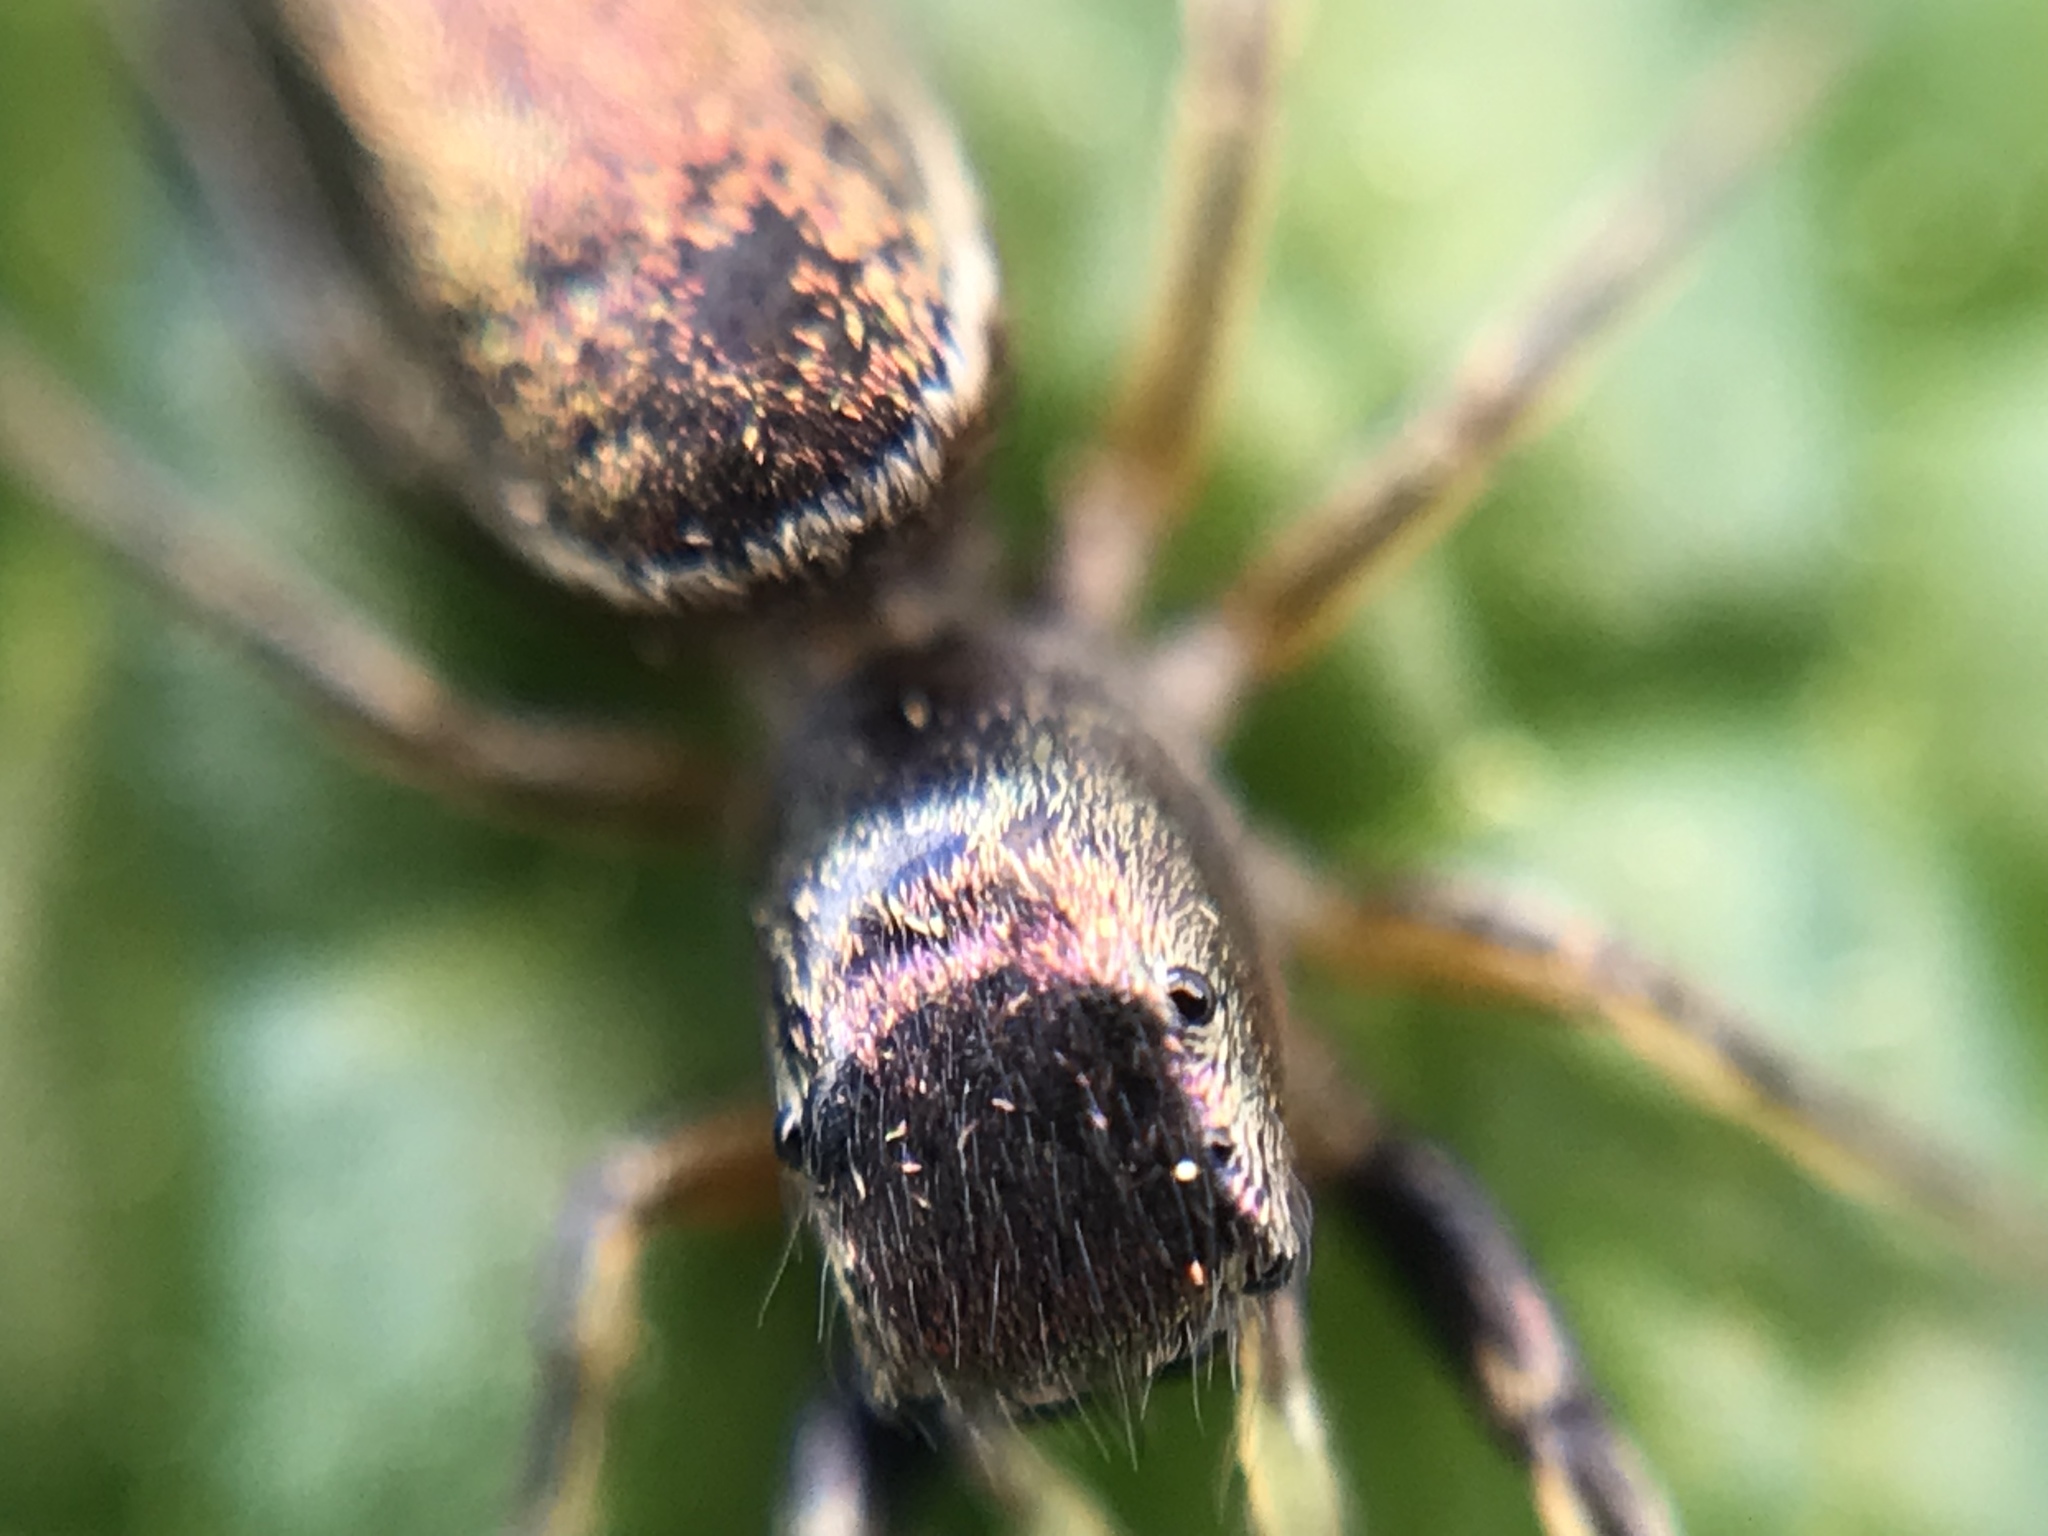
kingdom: Animalia
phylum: Arthropoda
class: Arachnida
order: Araneae
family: Salticidae
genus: Tutelina
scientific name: Tutelina elegans
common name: Thin-spined jumping spider
